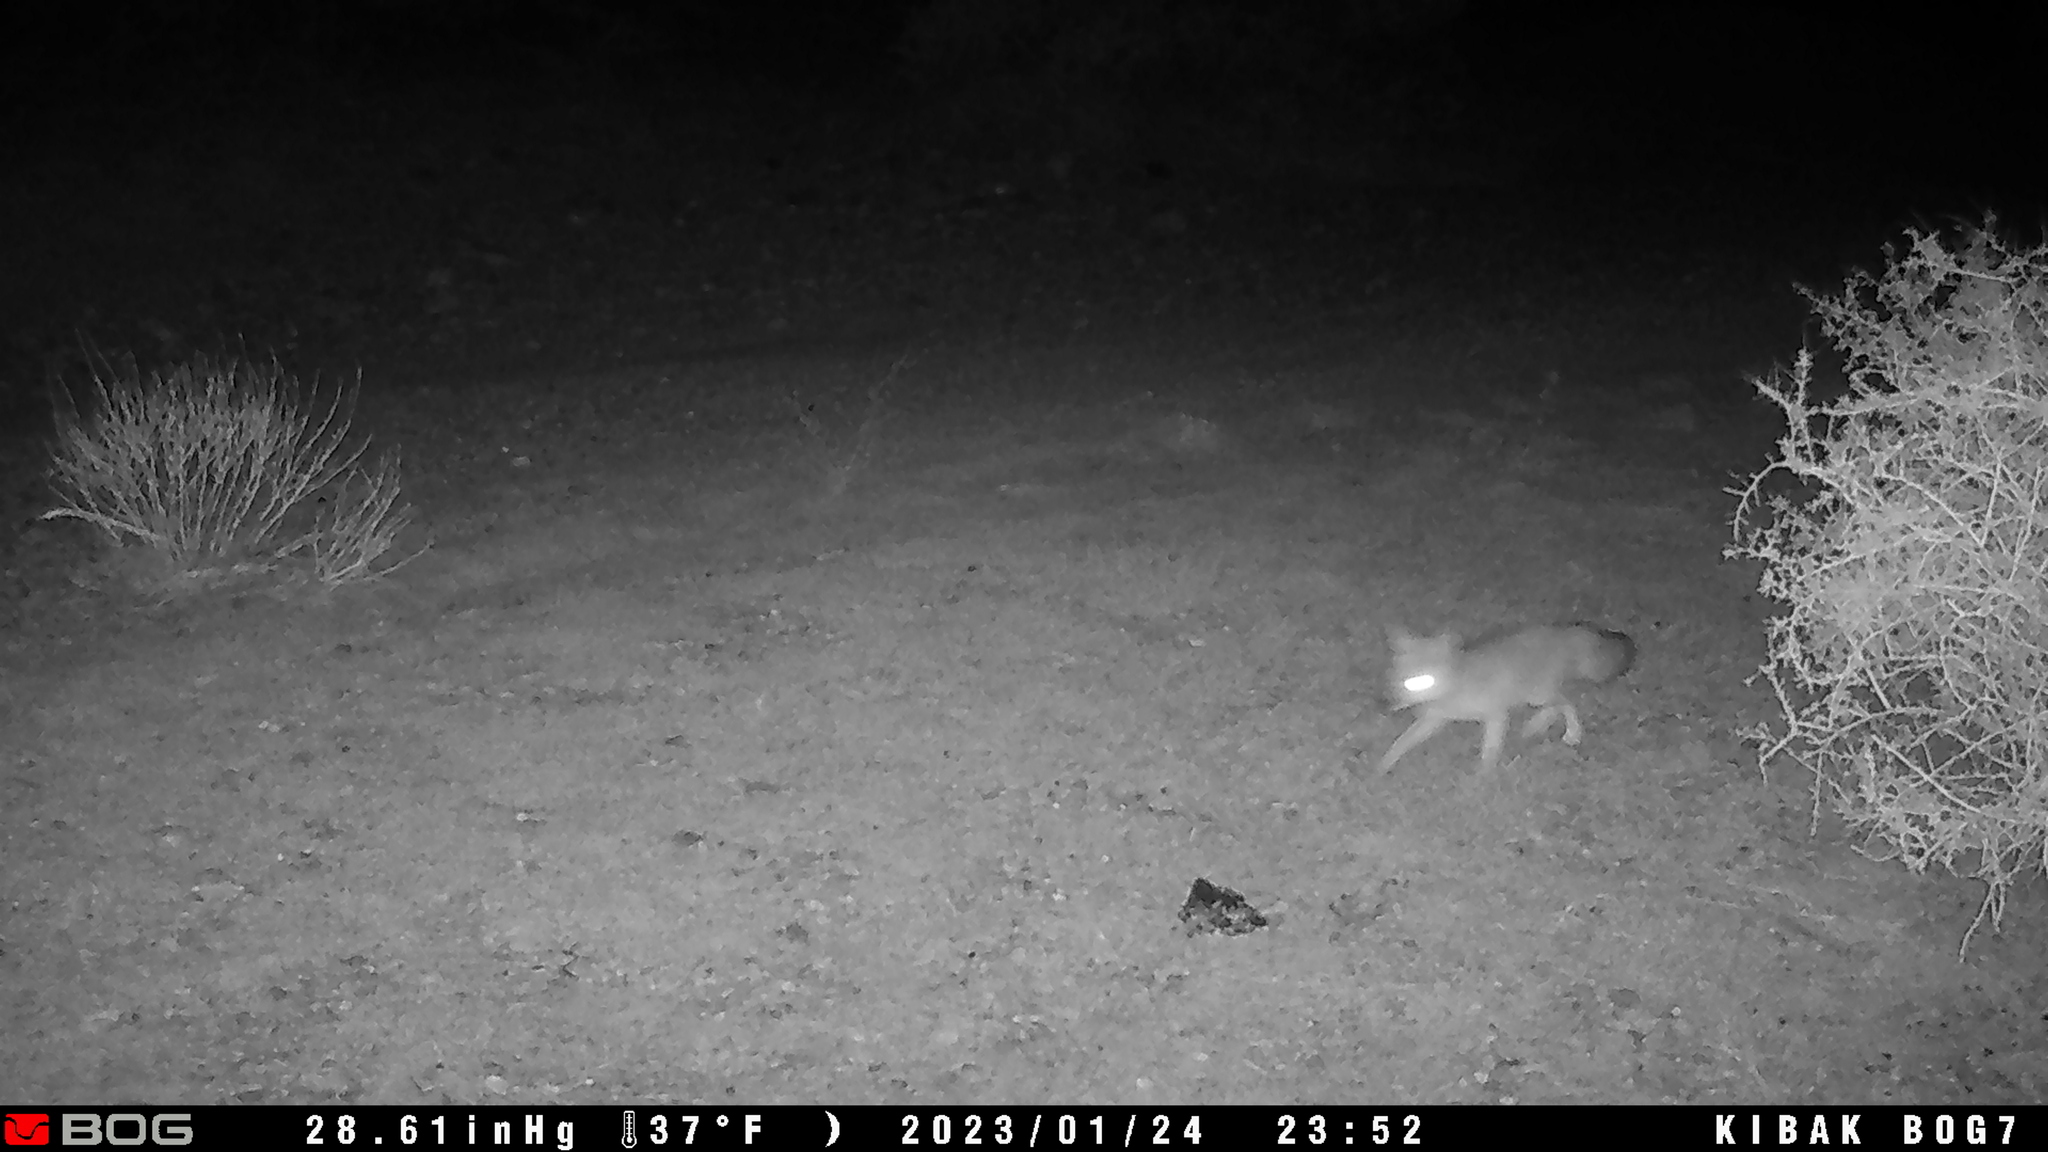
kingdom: Animalia
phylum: Chordata
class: Mammalia
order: Carnivora
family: Canidae
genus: Vulpes
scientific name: Vulpes macrotis
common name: Kit fox
